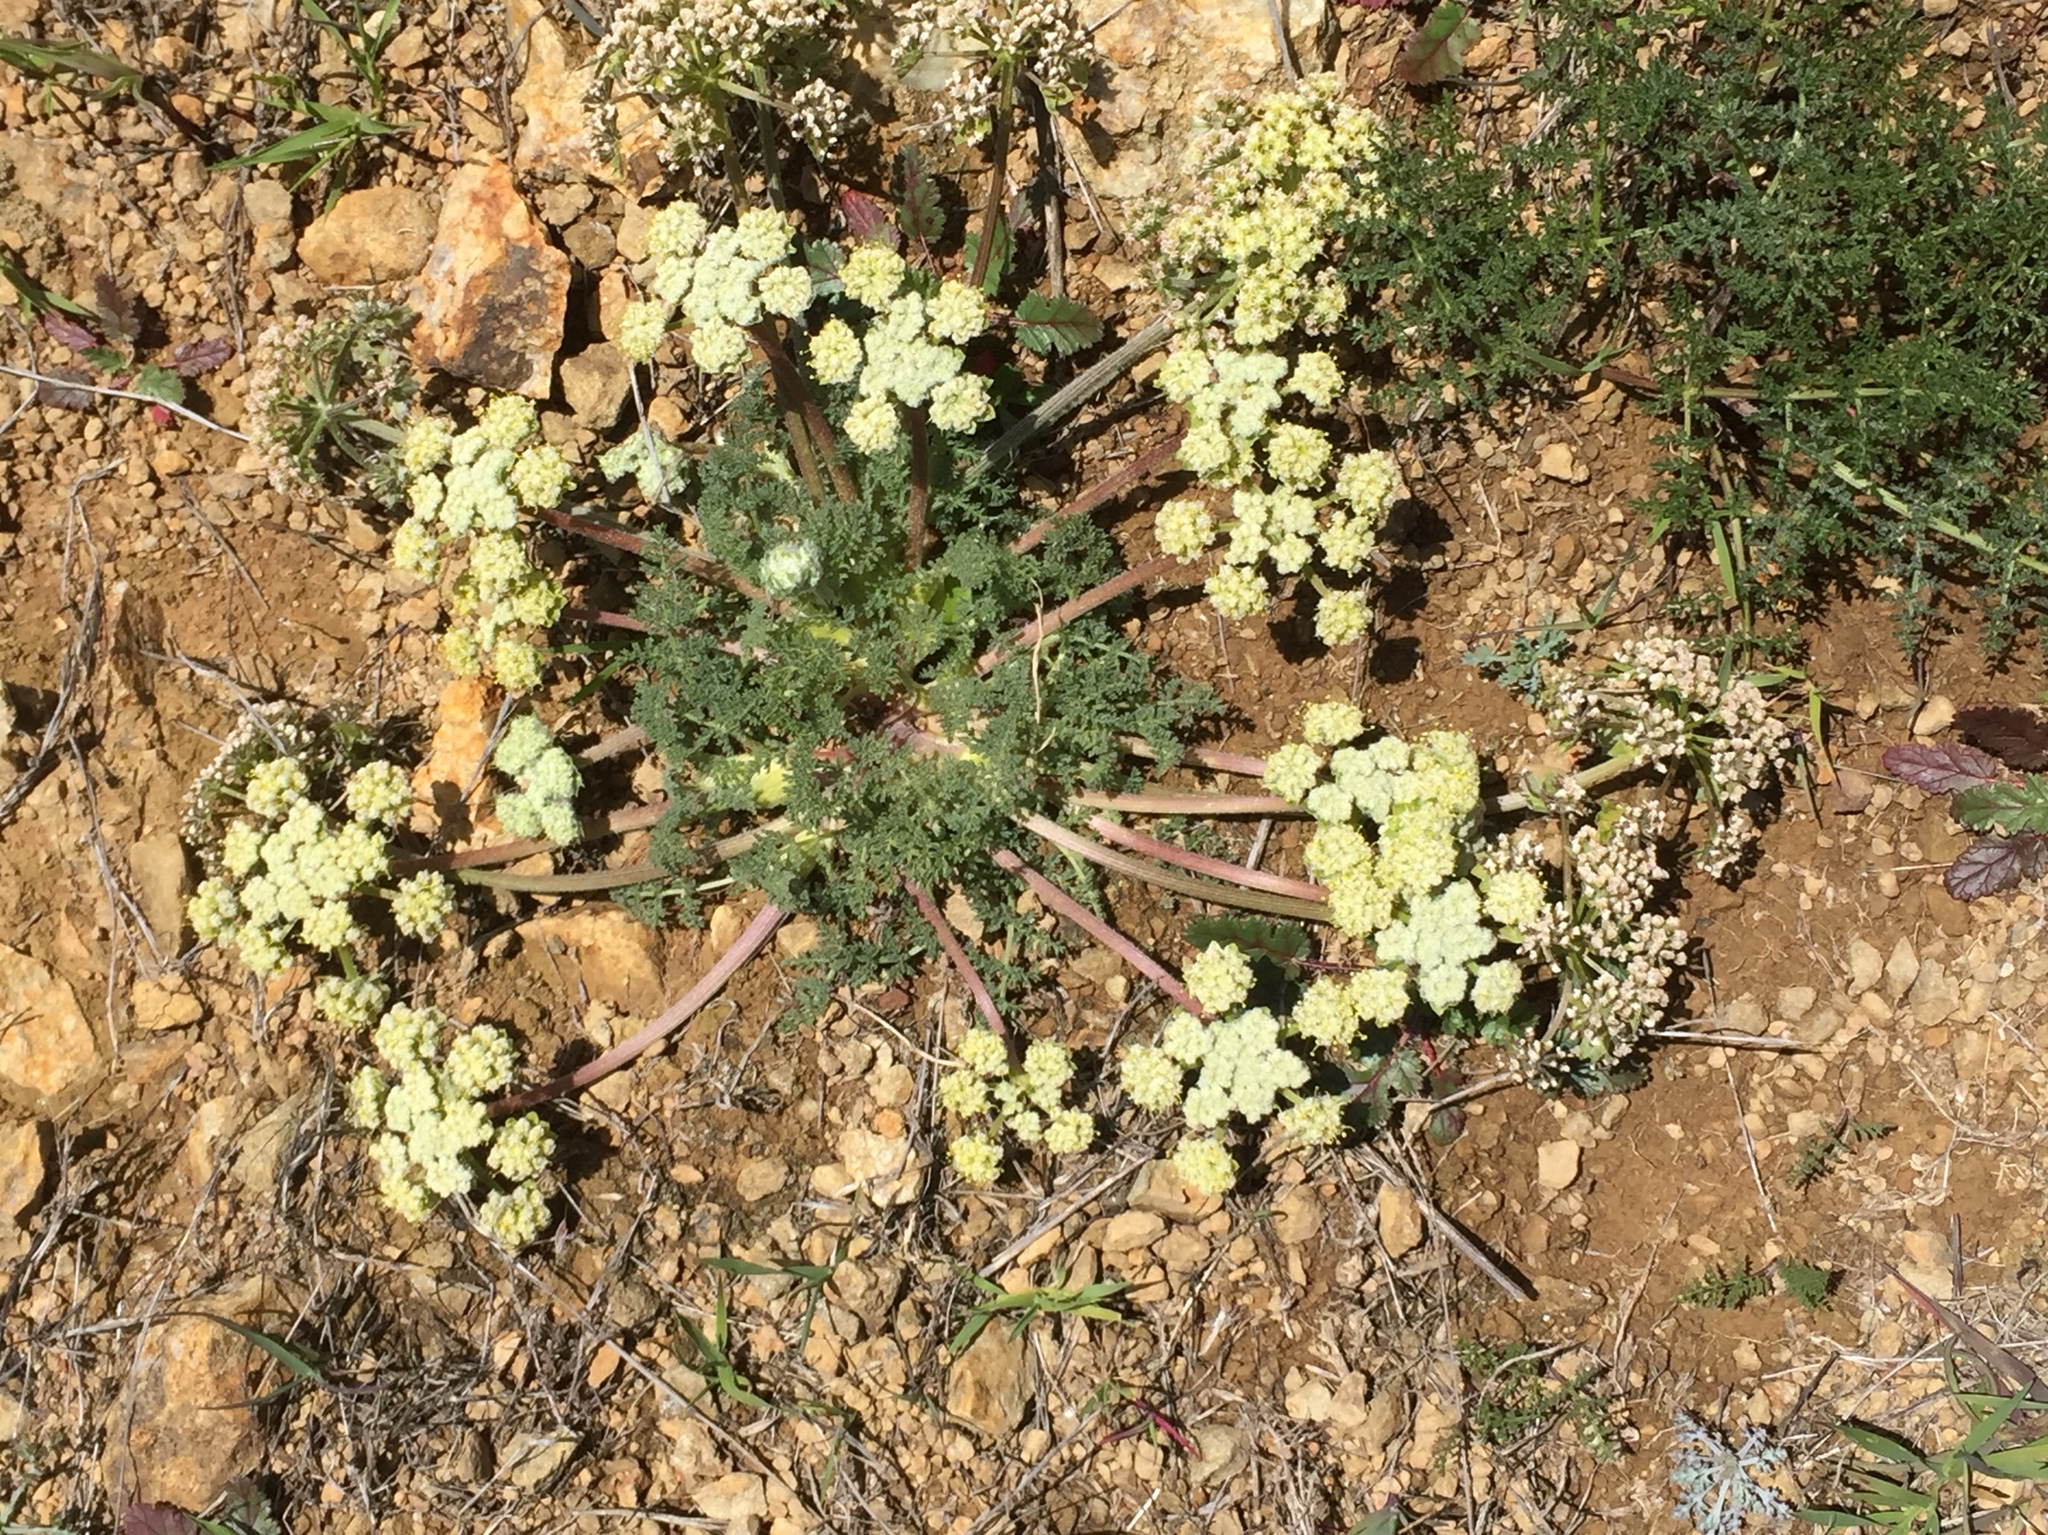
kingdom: Plantae
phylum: Tracheophyta
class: Magnoliopsida
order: Apiales
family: Apiaceae
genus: Lomatium
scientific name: Lomatium dasycarpum
